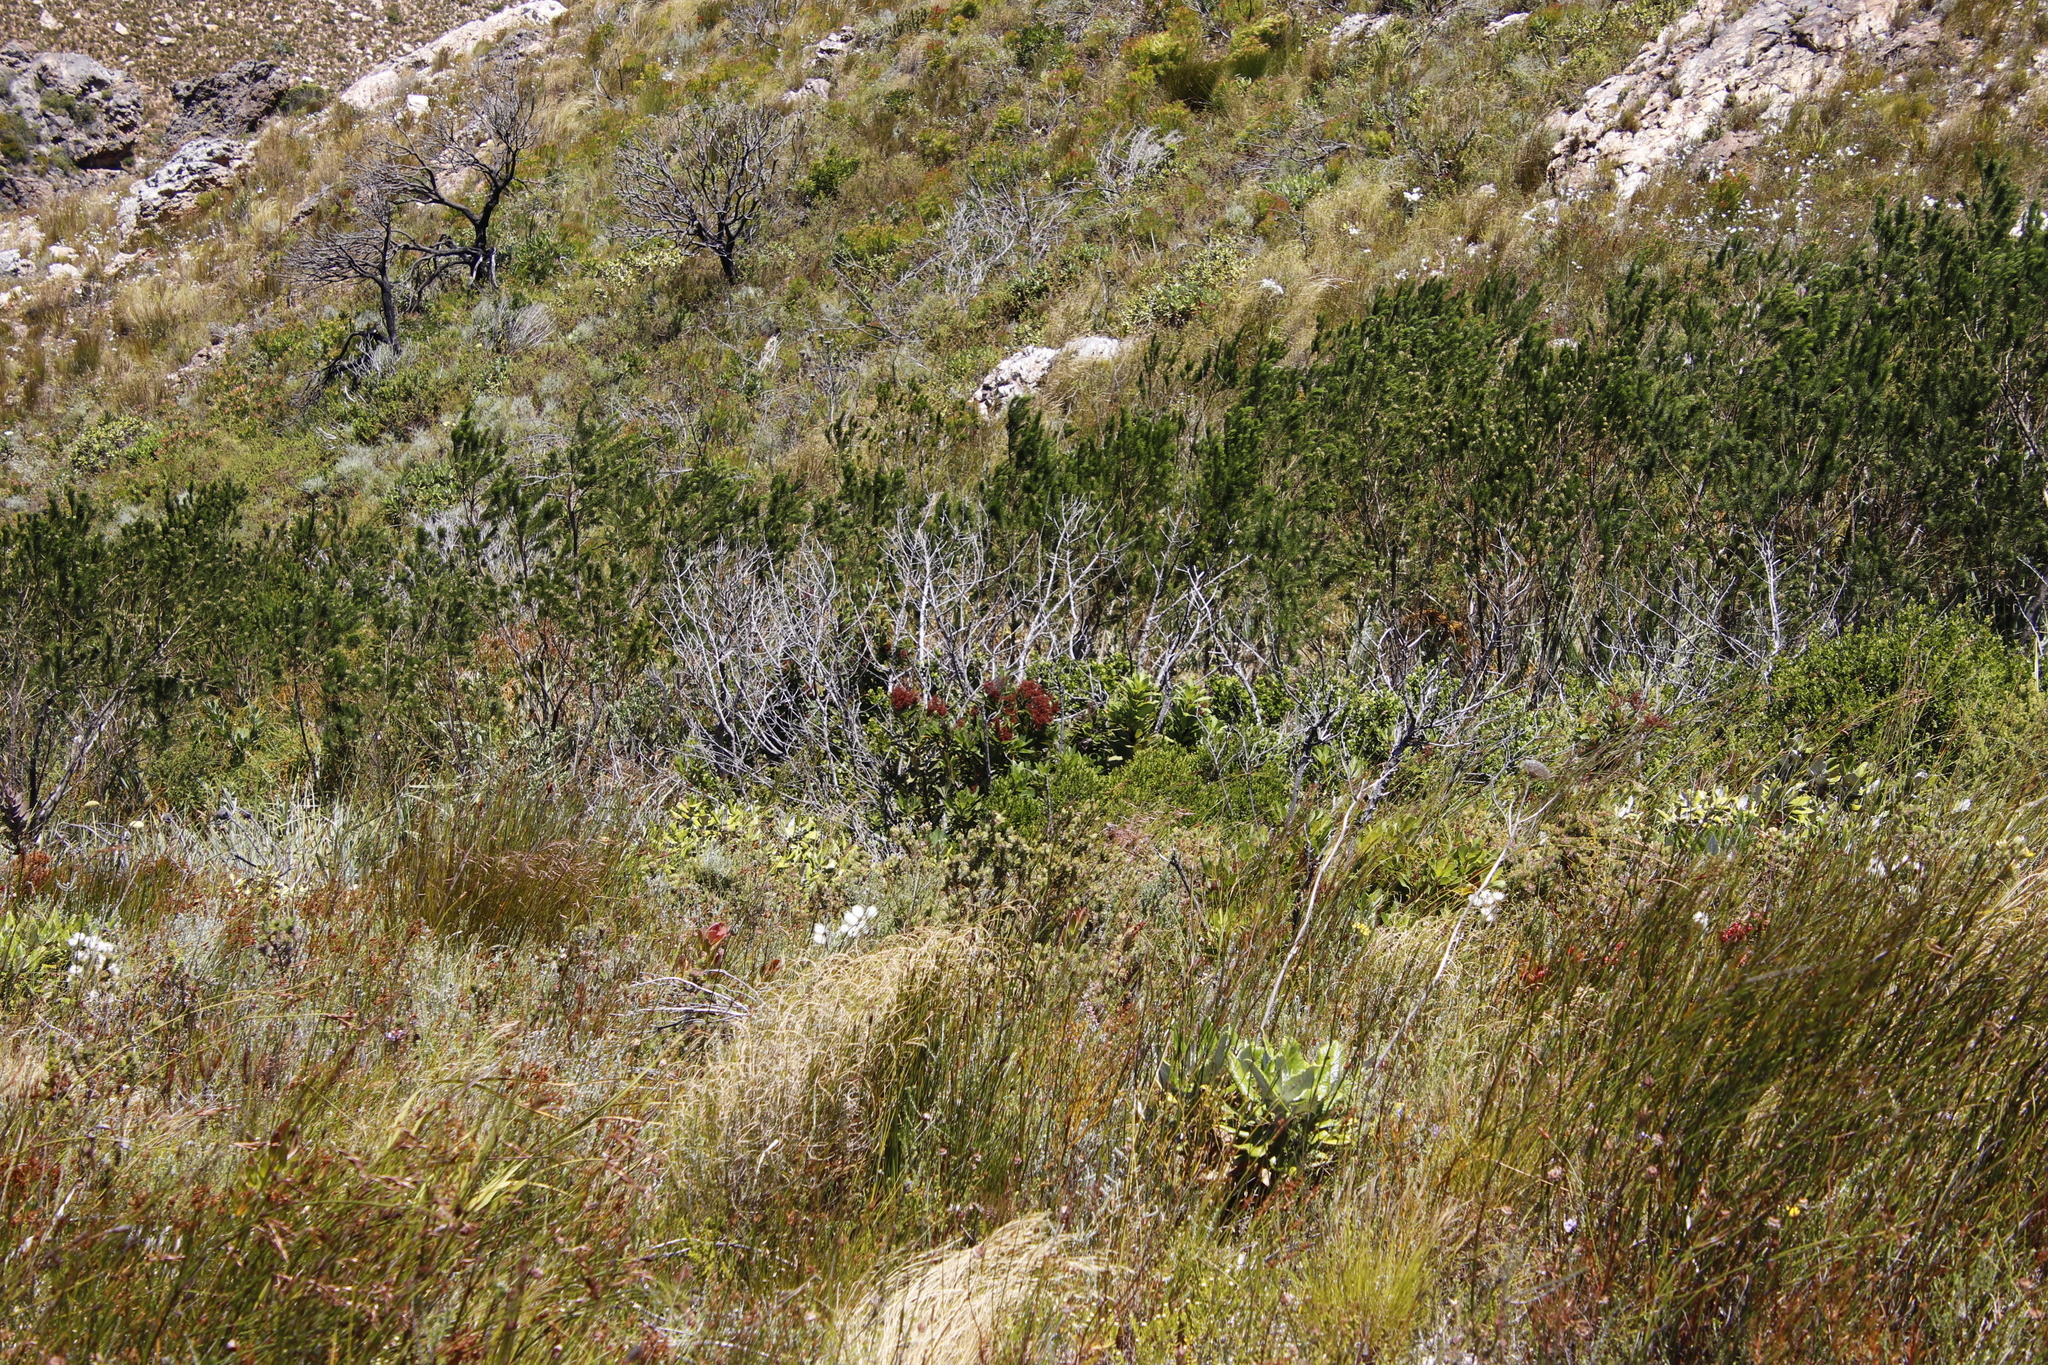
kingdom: Plantae
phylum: Tracheophyta
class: Magnoliopsida
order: Sapindales
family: Anacardiaceae
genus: Laurophyllus
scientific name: Laurophyllus capensis
